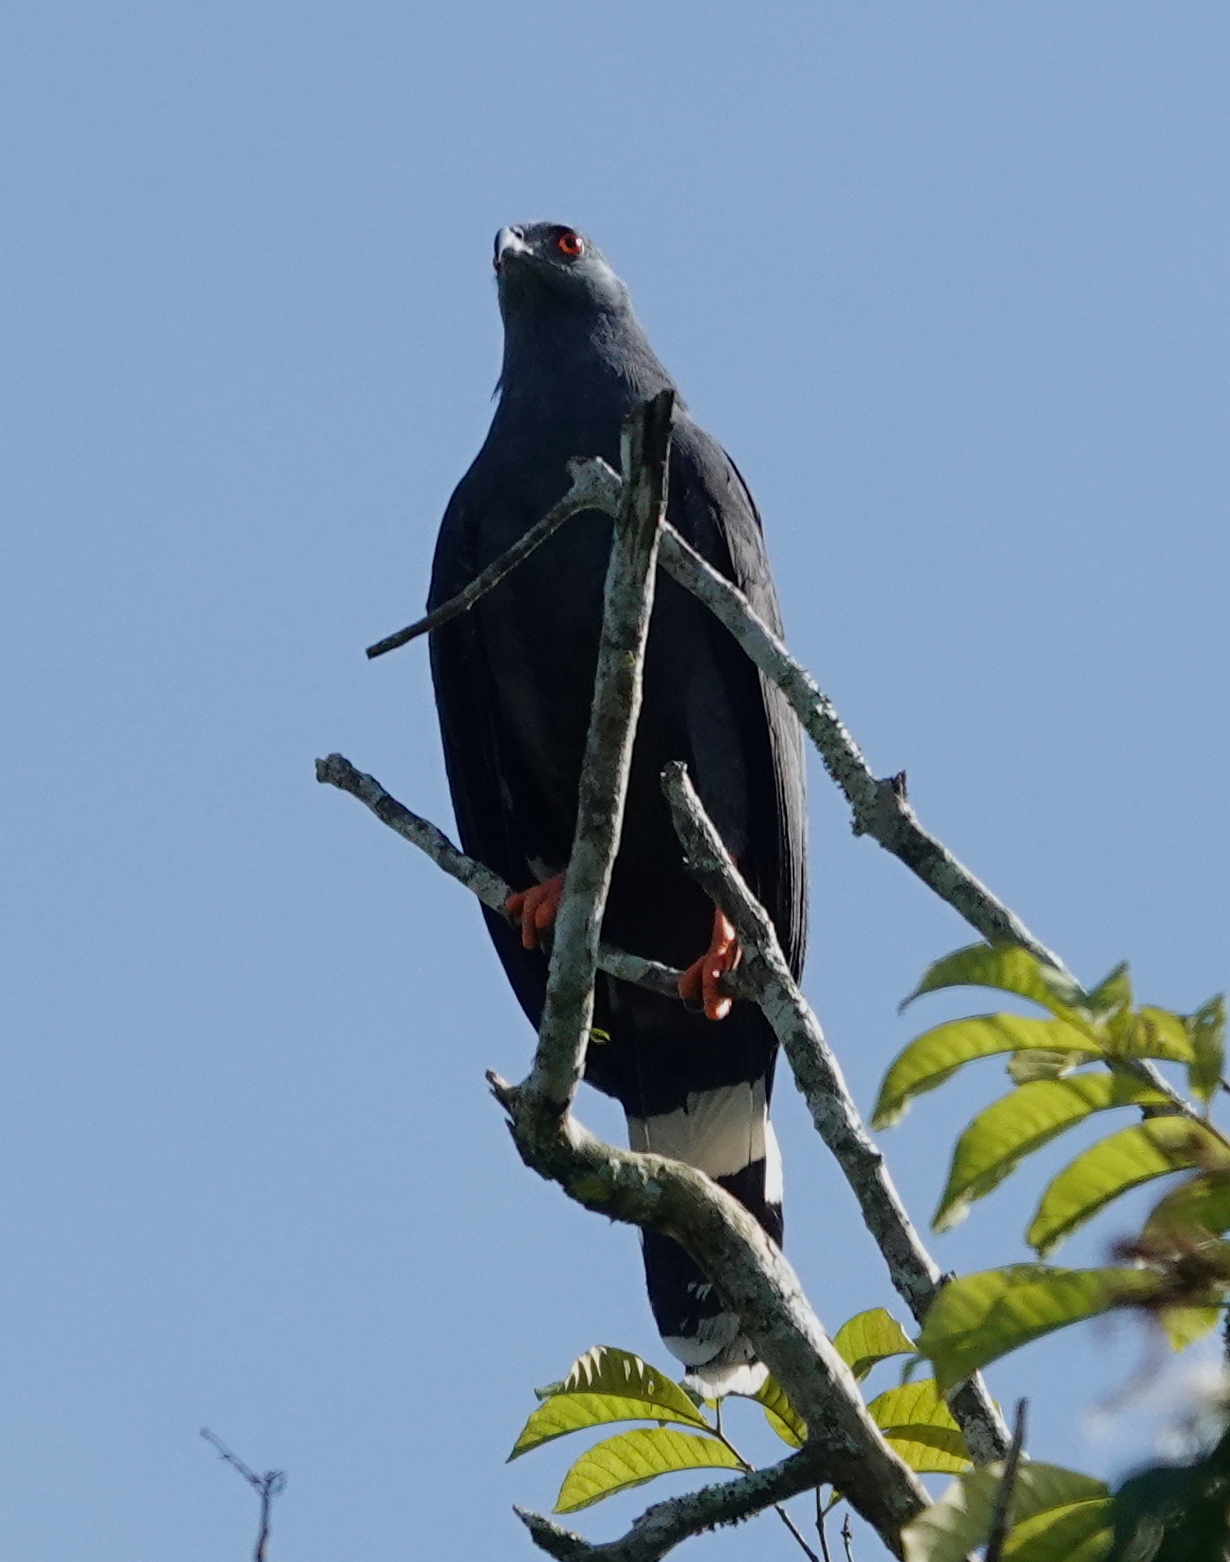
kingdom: Animalia
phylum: Chordata
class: Aves
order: Accipitriformes
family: Accipitridae
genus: Geranospiza
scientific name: Geranospiza caerulescens
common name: Crane hawk
